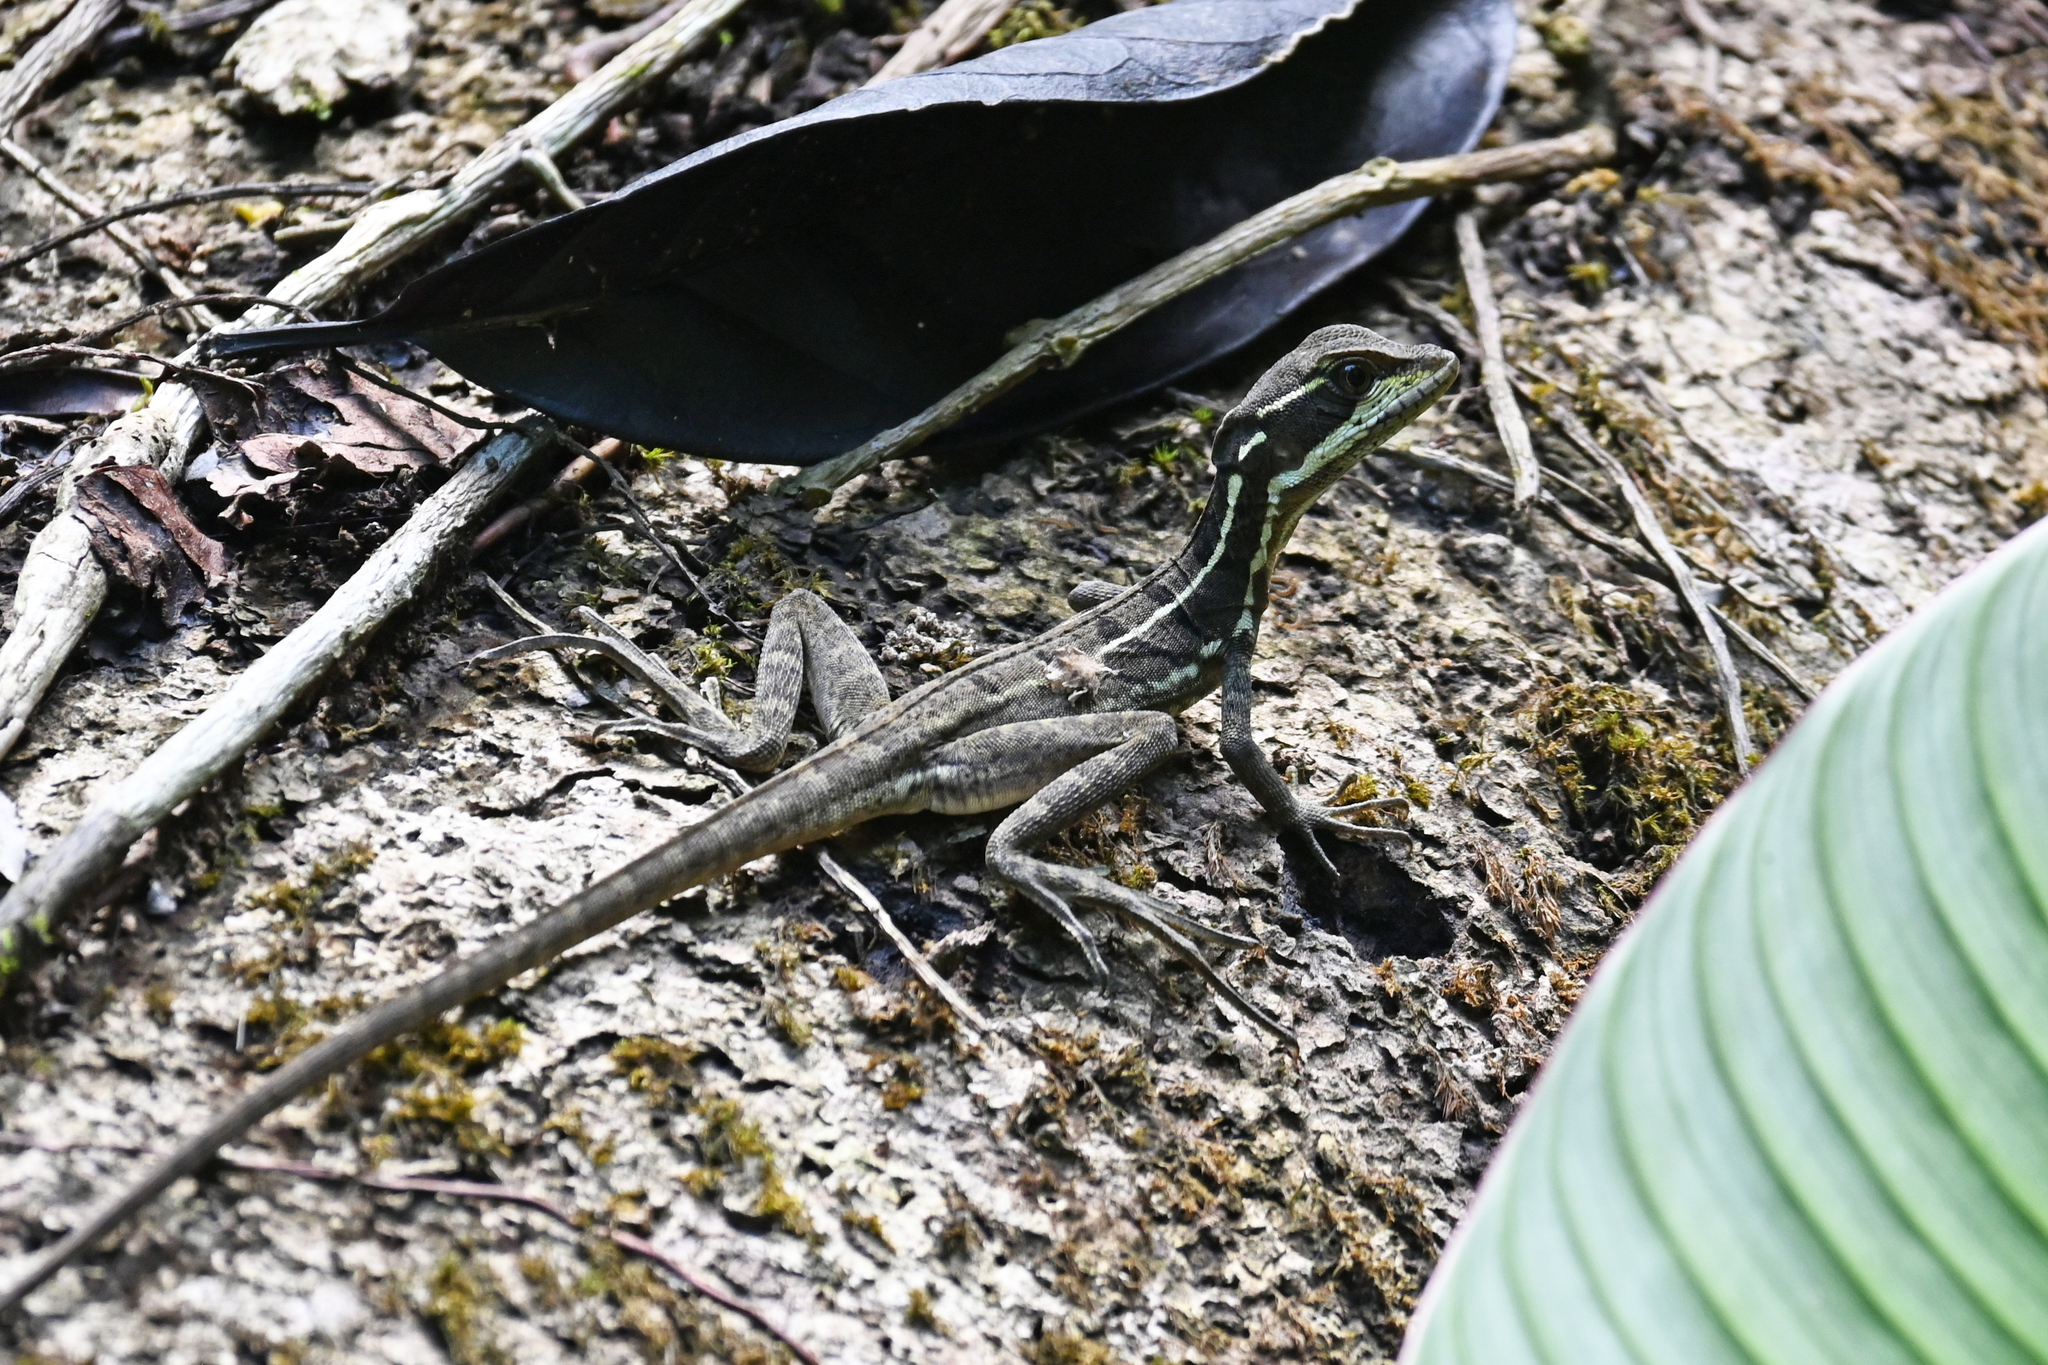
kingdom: Animalia
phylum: Chordata
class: Squamata
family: Corytophanidae
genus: Basiliscus
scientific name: Basiliscus basiliscus
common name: Common basilisk
